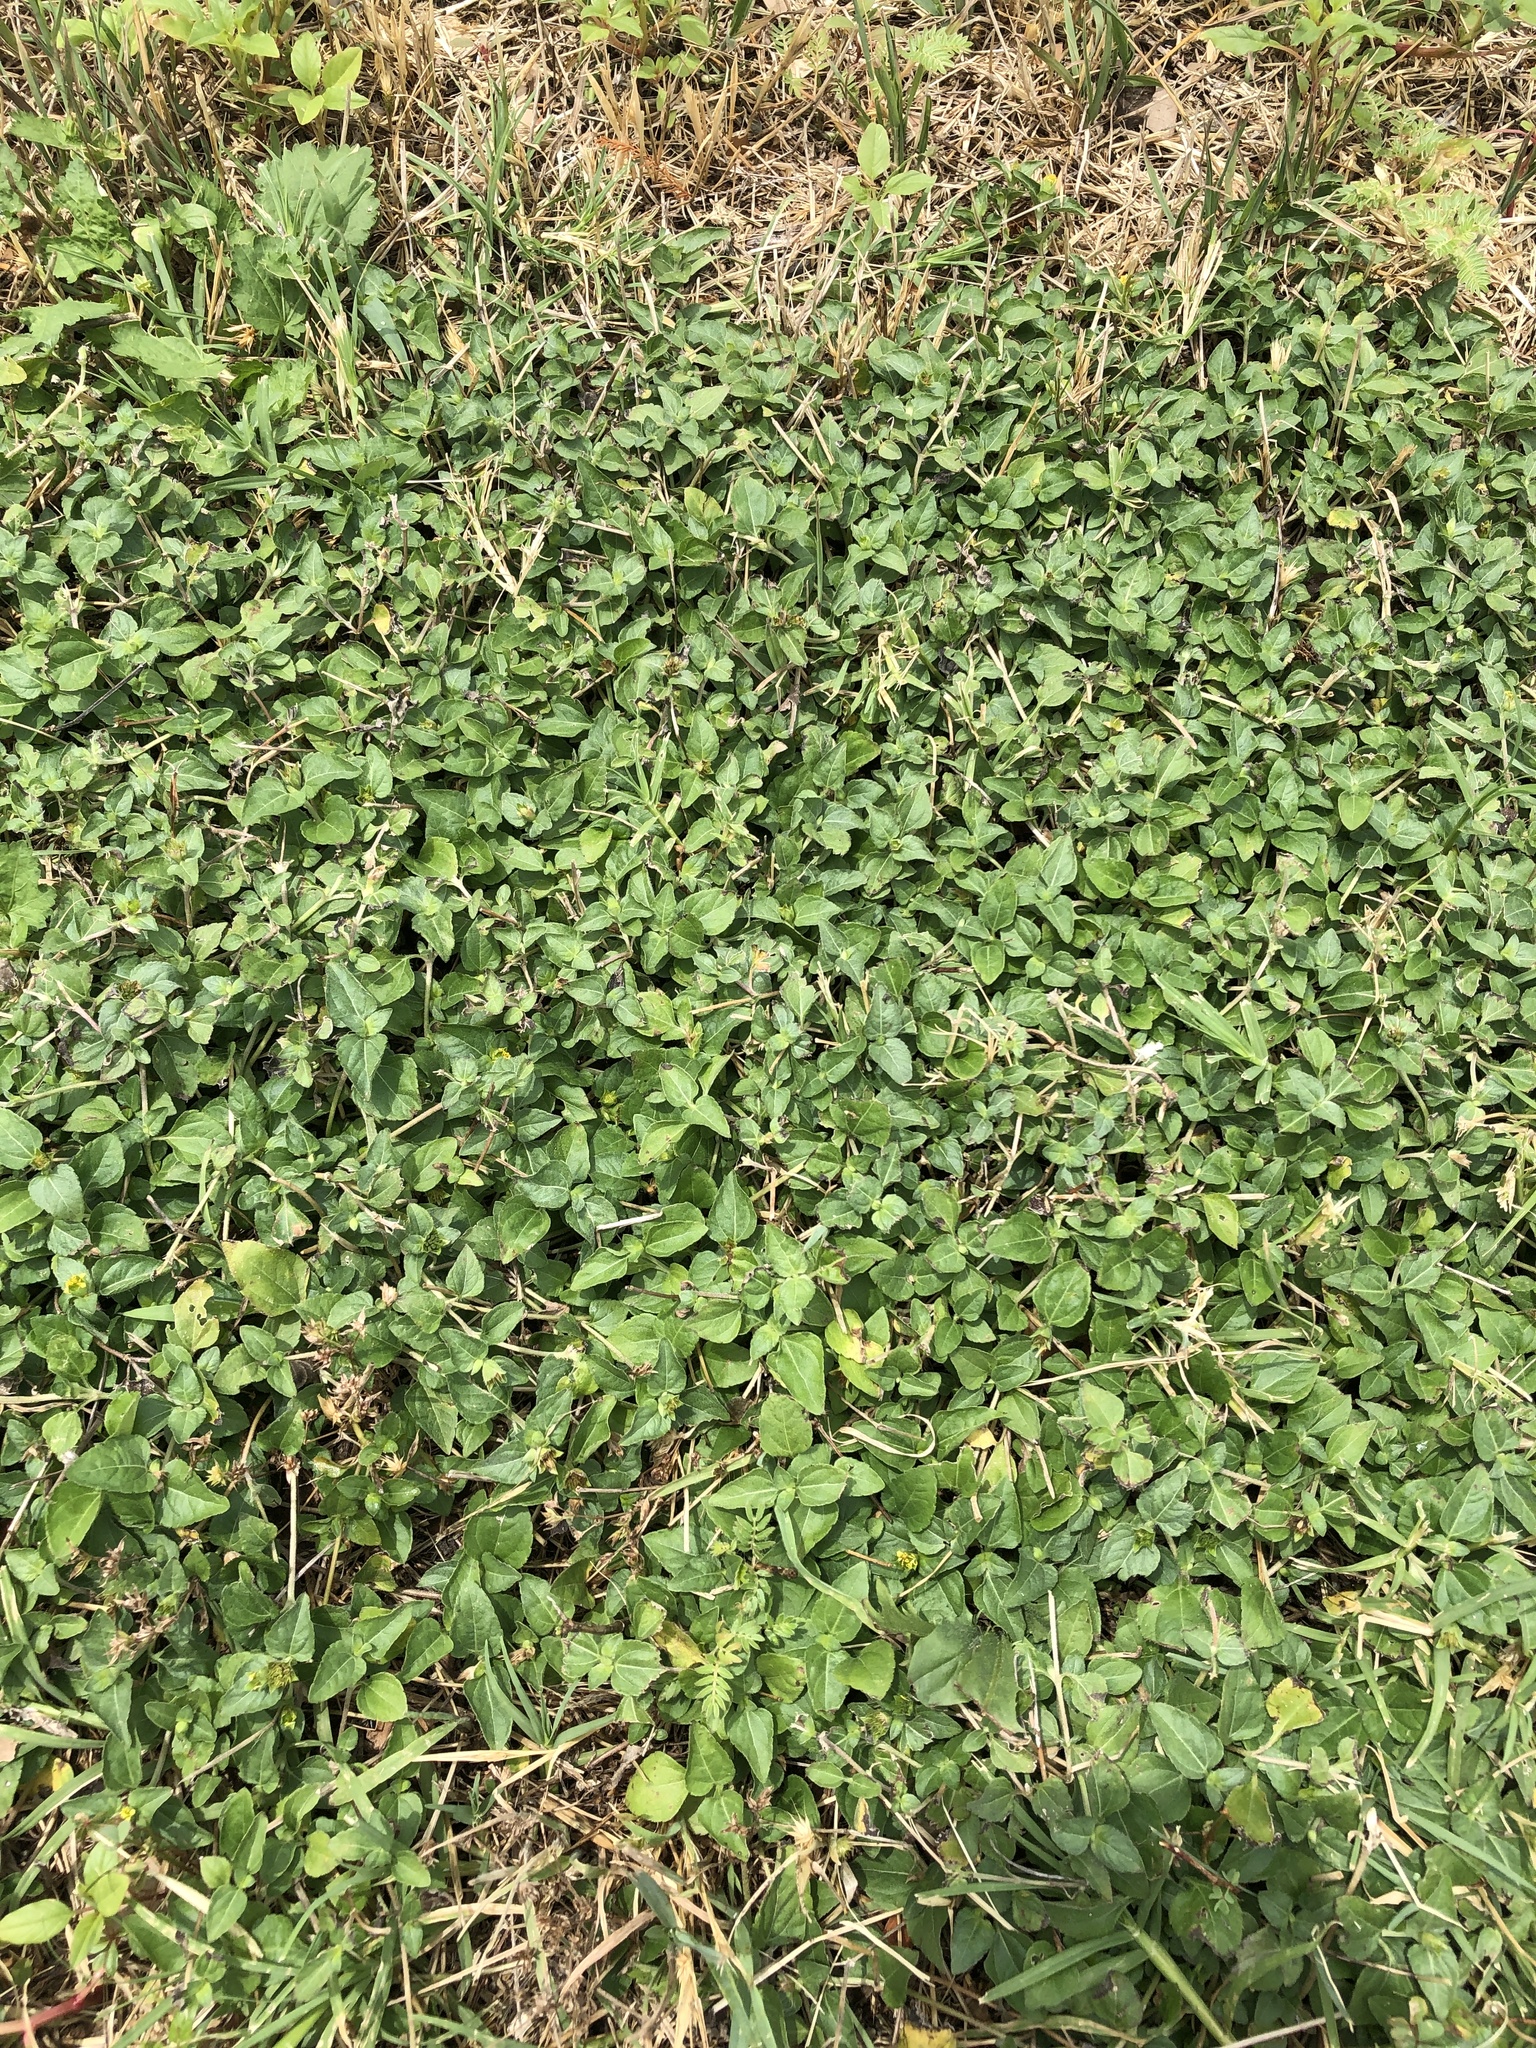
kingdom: Plantae
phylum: Tracheophyta
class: Magnoliopsida
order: Asterales
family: Asteraceae
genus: Calyptocarpus
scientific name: Calyptocarpus vialis
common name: Straggler daisy
